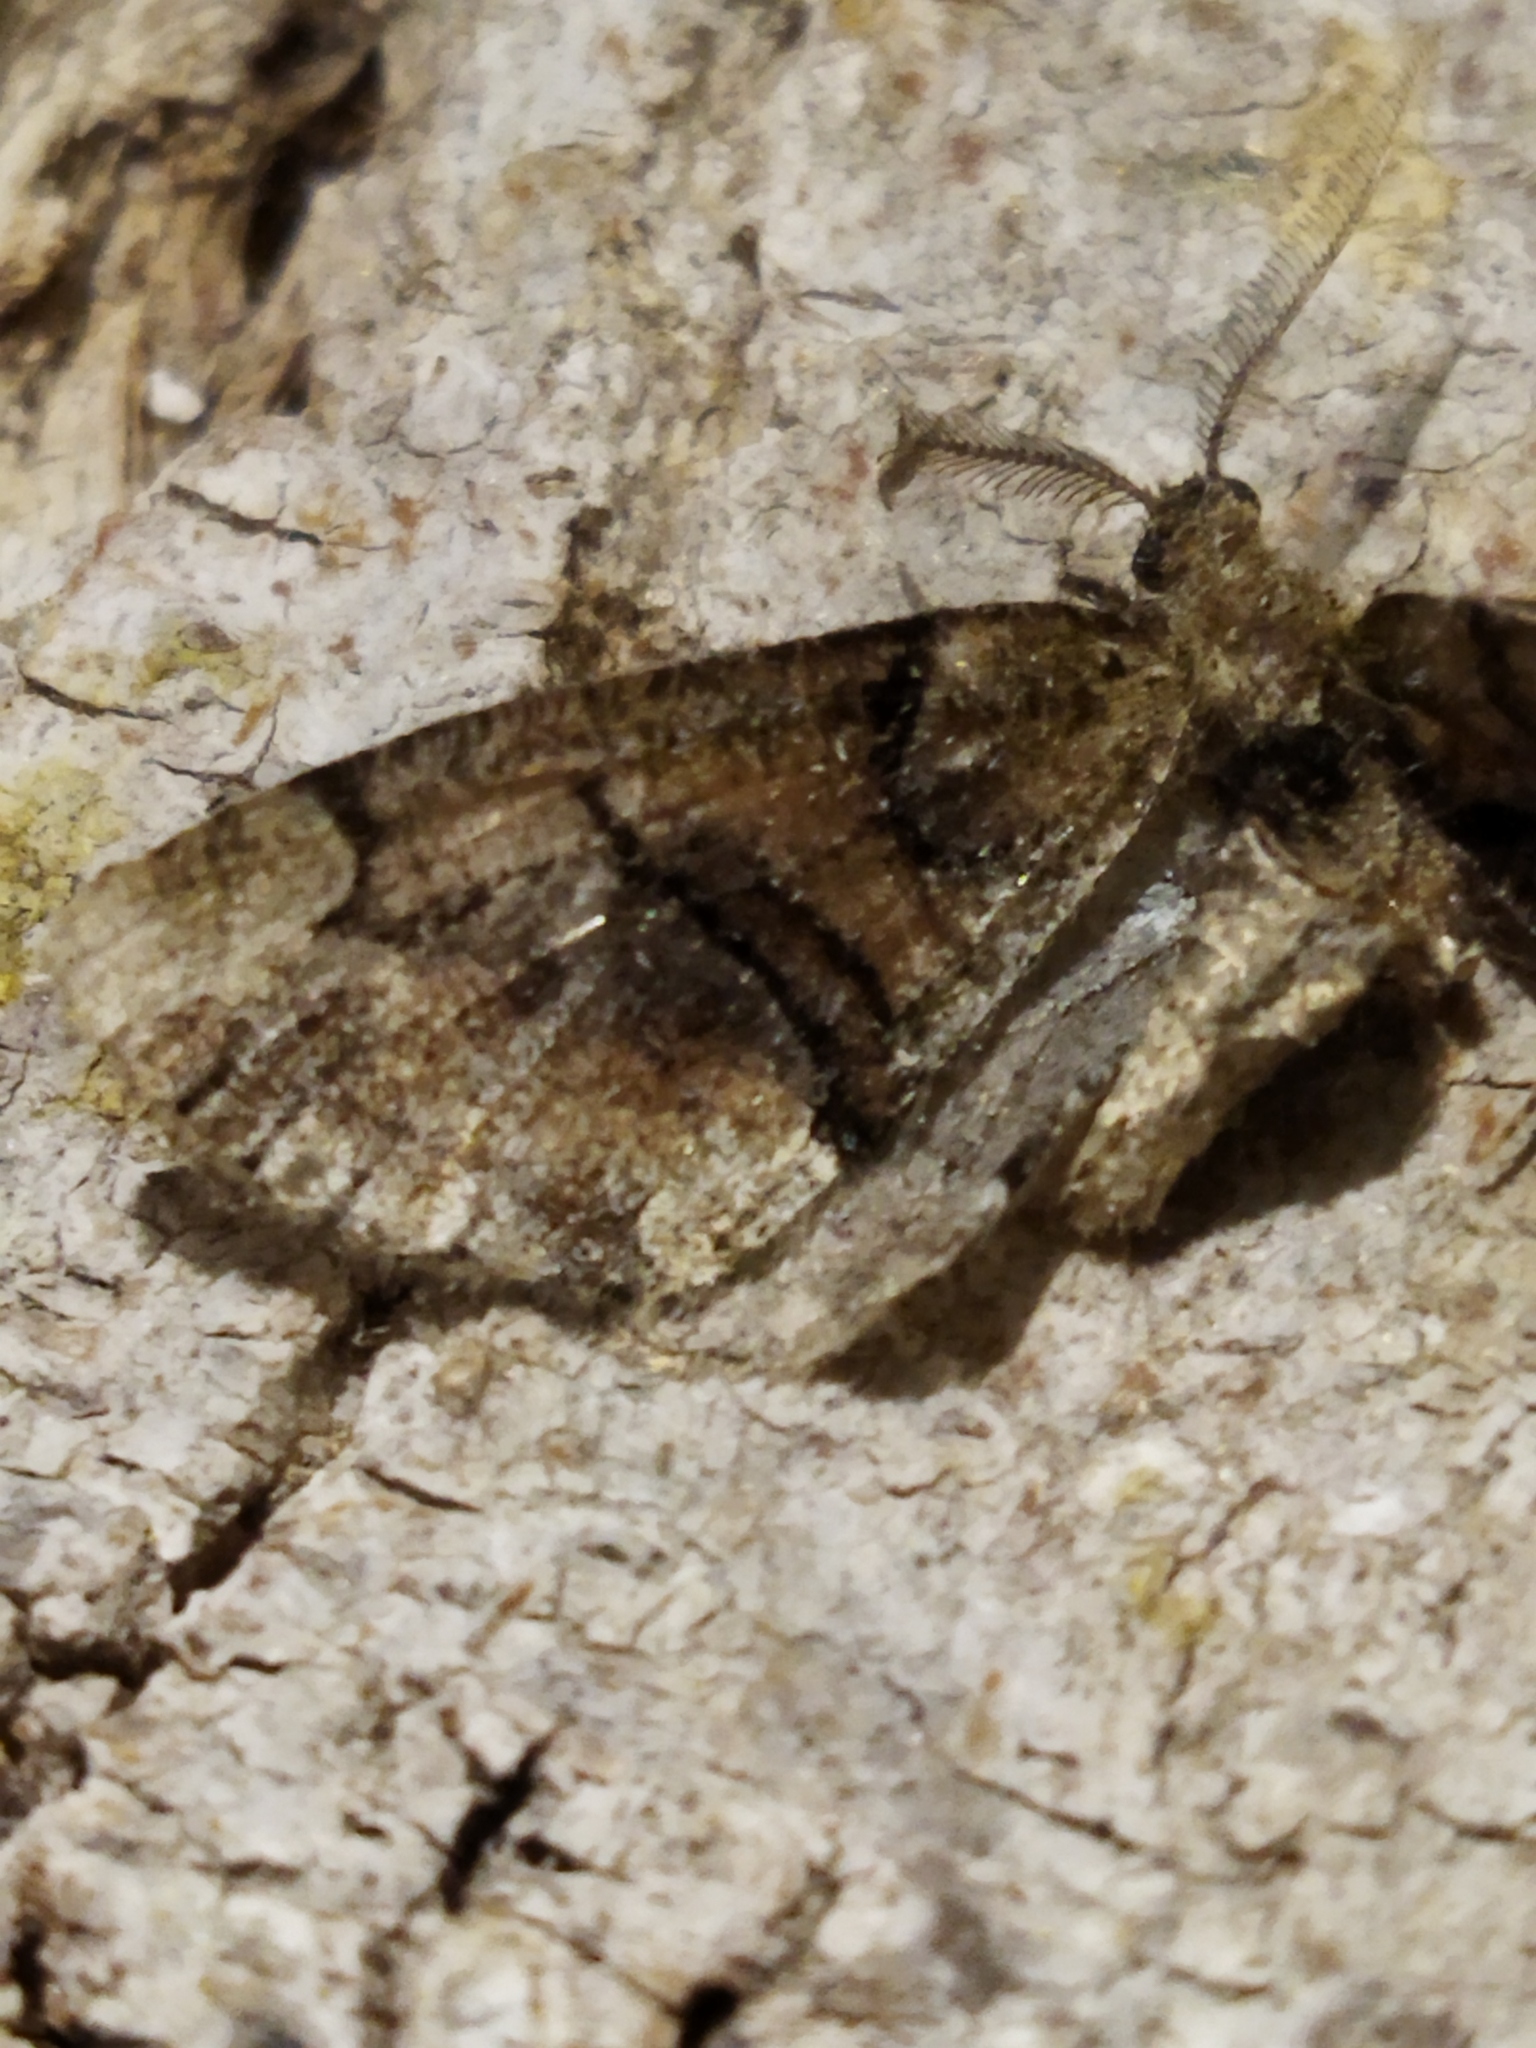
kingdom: Animalia
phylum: Arthropoda
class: Insecta
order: Lepidoptera
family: Geometridae
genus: Asovia
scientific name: Asovia maeoticaria
